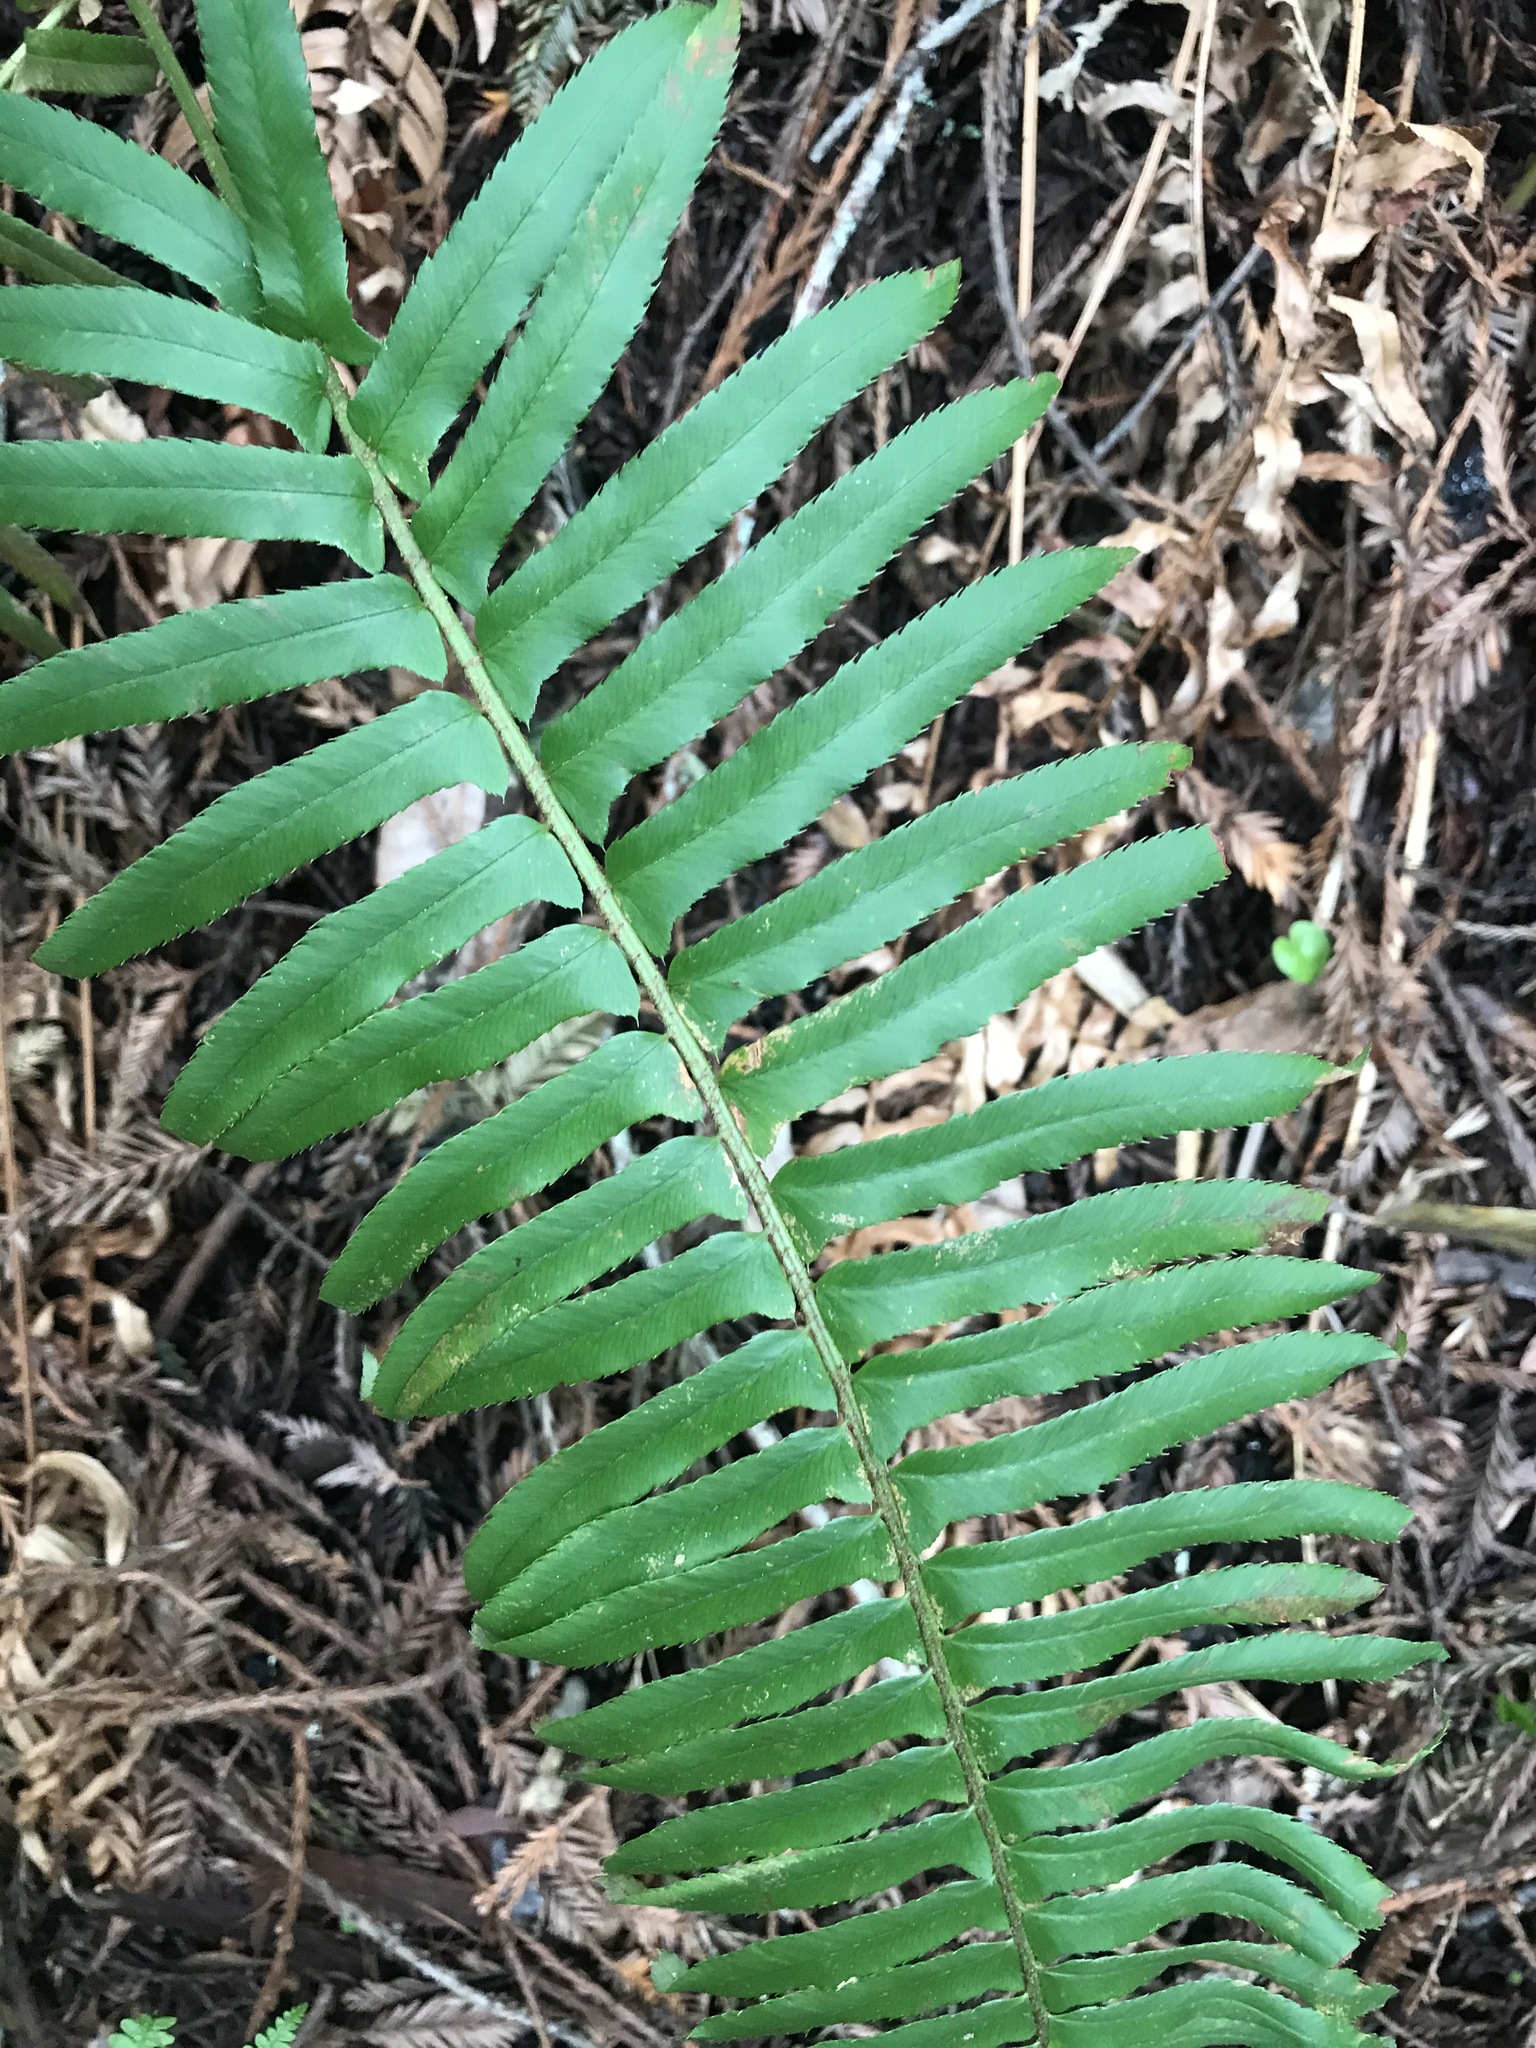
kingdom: Plantae
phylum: Tracheophyta
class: Polypodiopsida
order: Polypodiales
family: Dryopteridaceae
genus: Polystichum
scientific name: Polystichum munitum
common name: Western sword-fern
